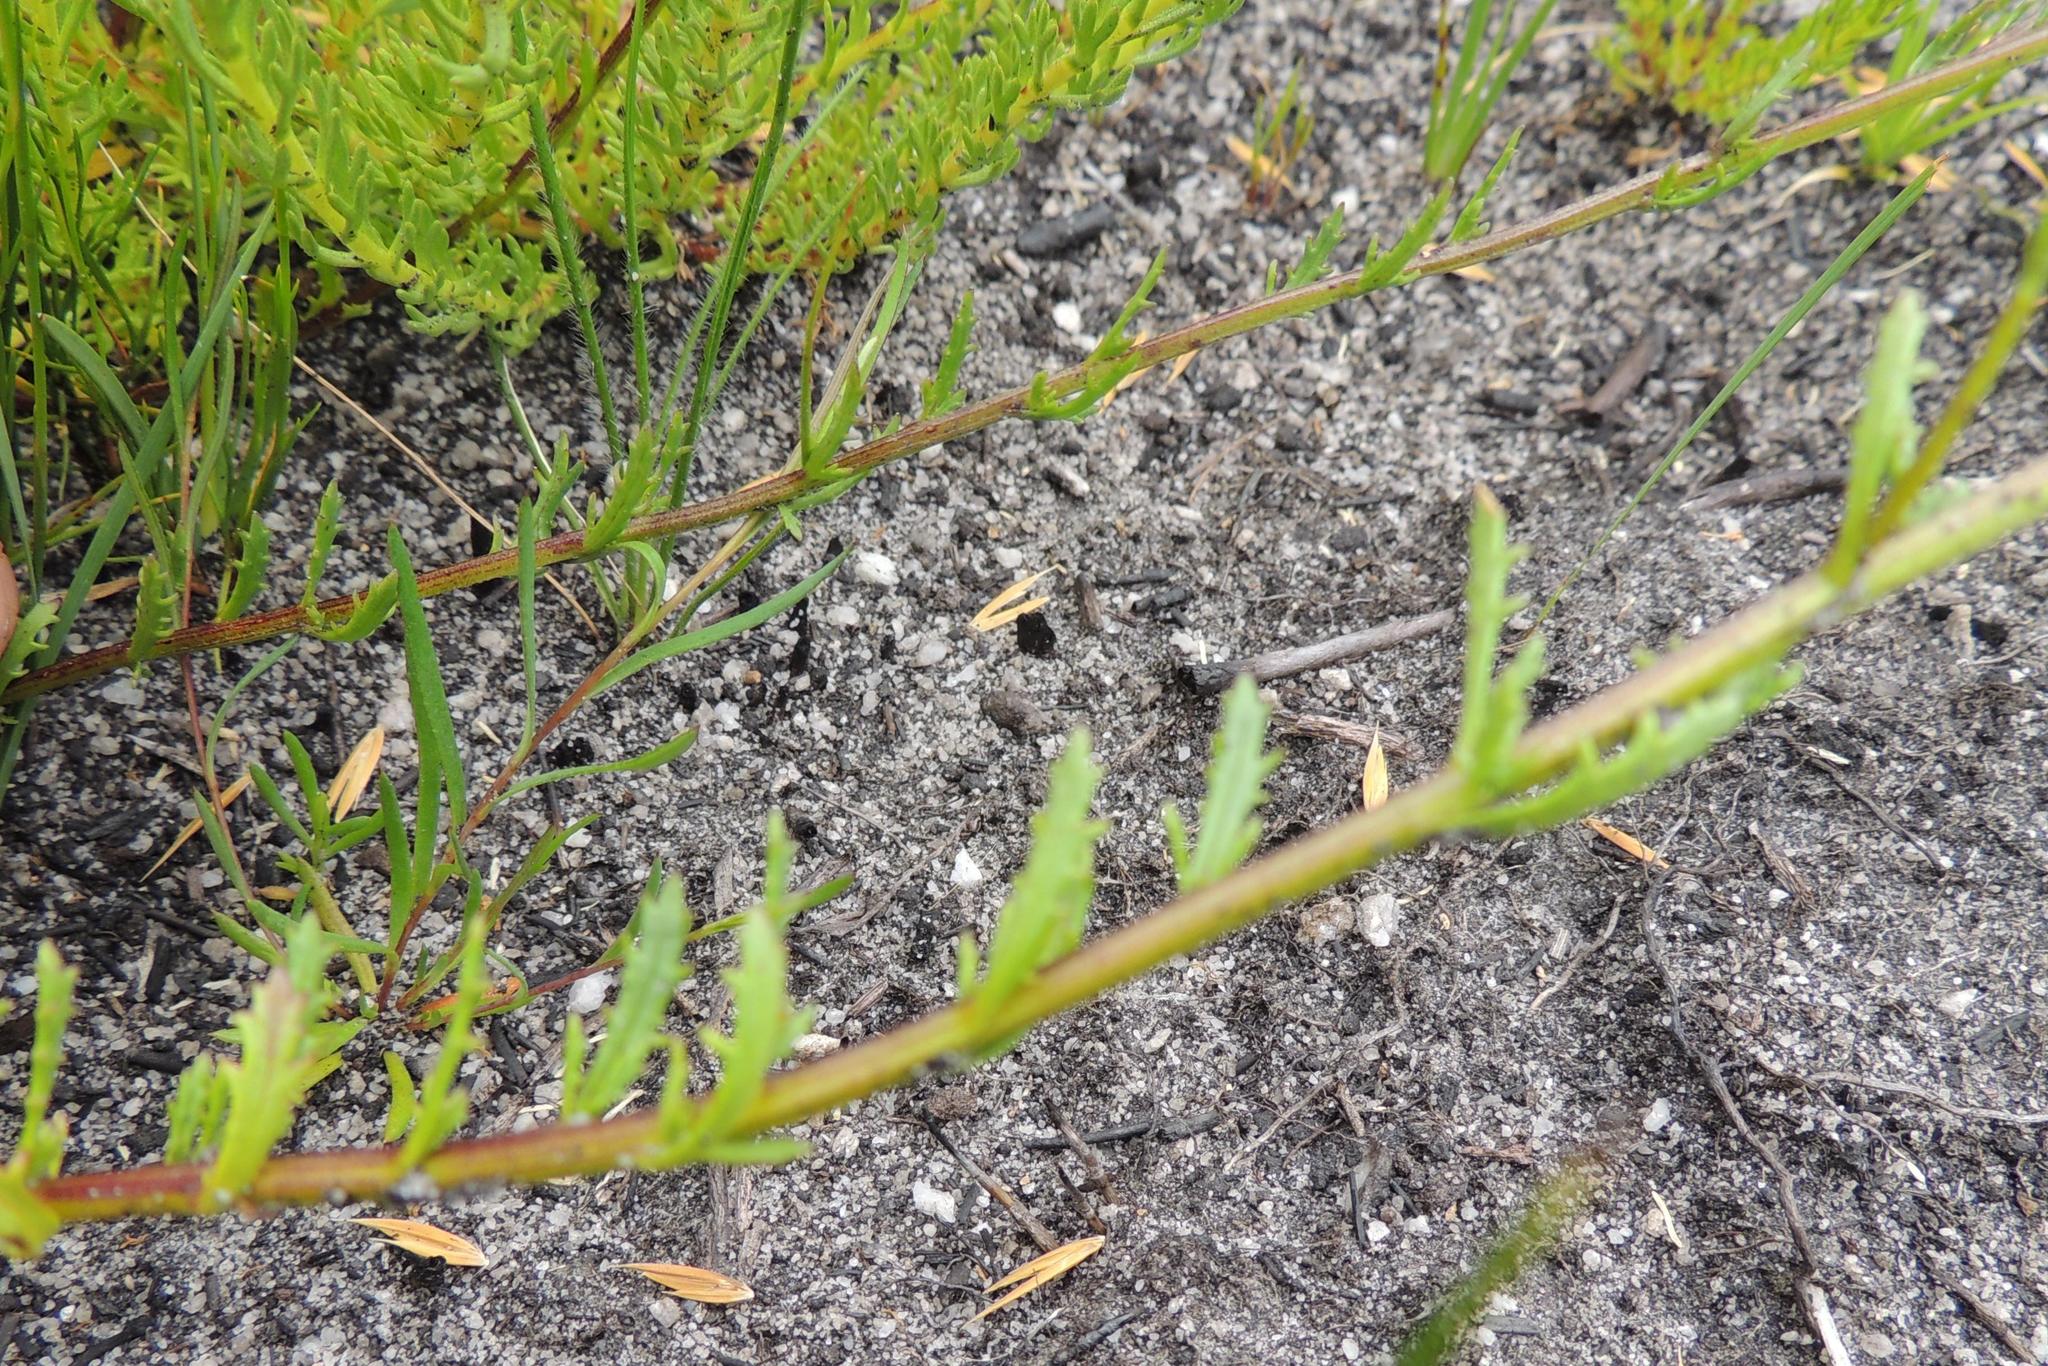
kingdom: Plantae
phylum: Tracheophyta
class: Magnoliopsida
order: Lamiales
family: Scrophulariaceae
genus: Pseudoselago
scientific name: Pseudoselago caerulescens
